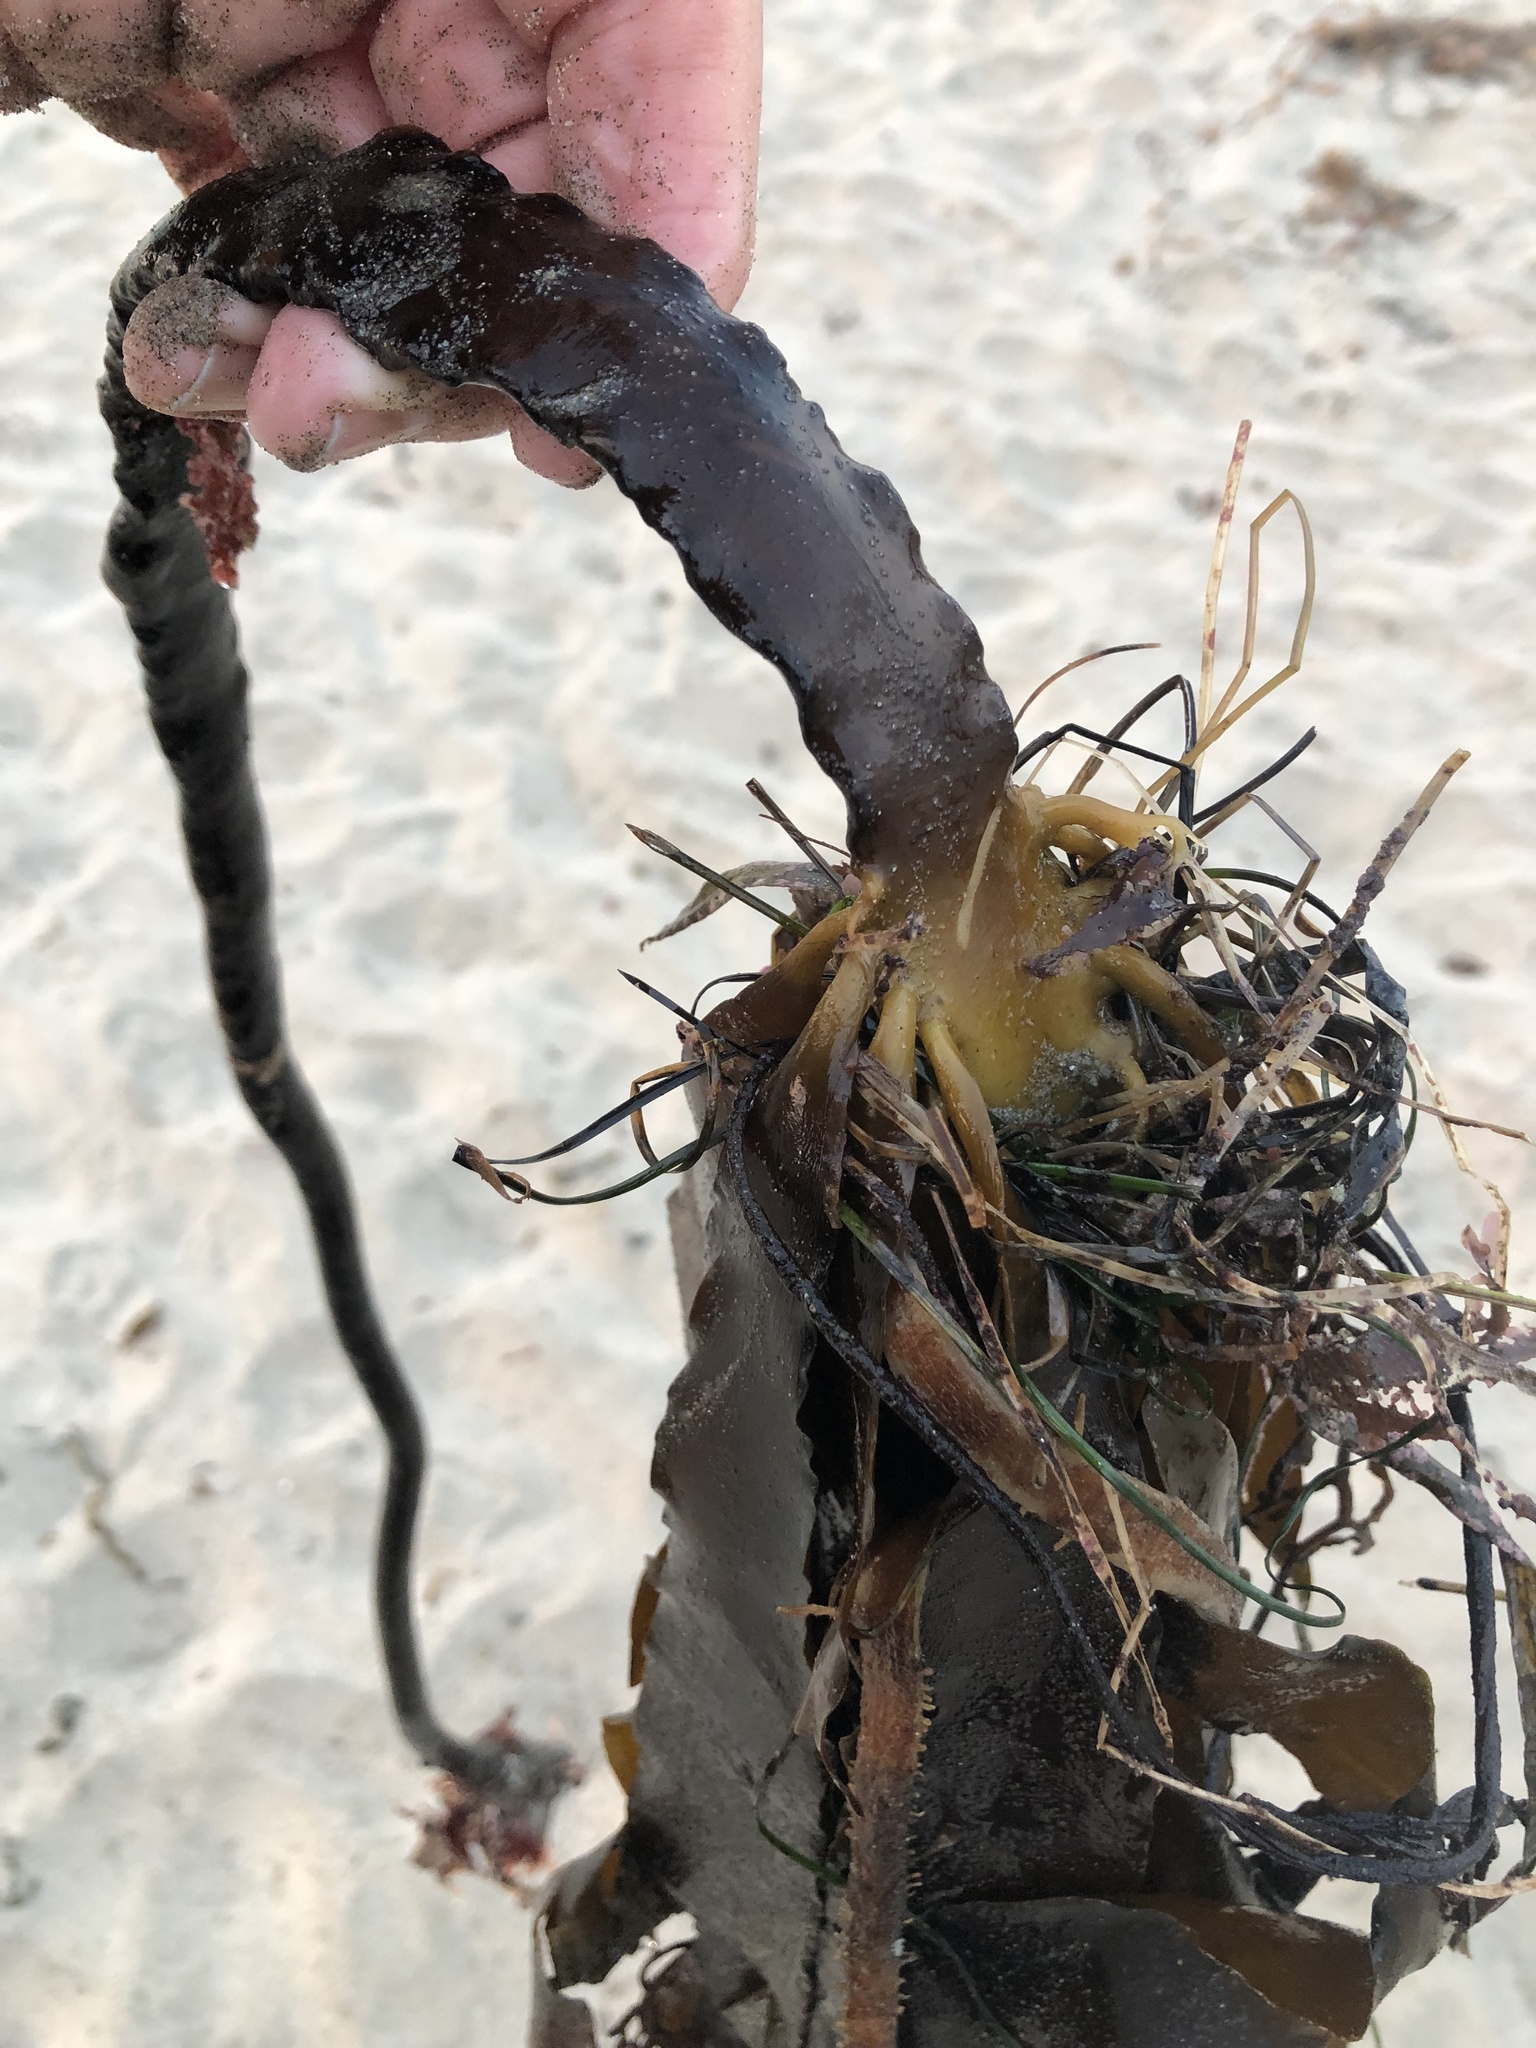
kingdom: Chromista
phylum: Ochrophyta
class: Phaeophyceae
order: Laminariales
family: Alariaceae
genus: Pterygophora
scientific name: Pterygophora californica
